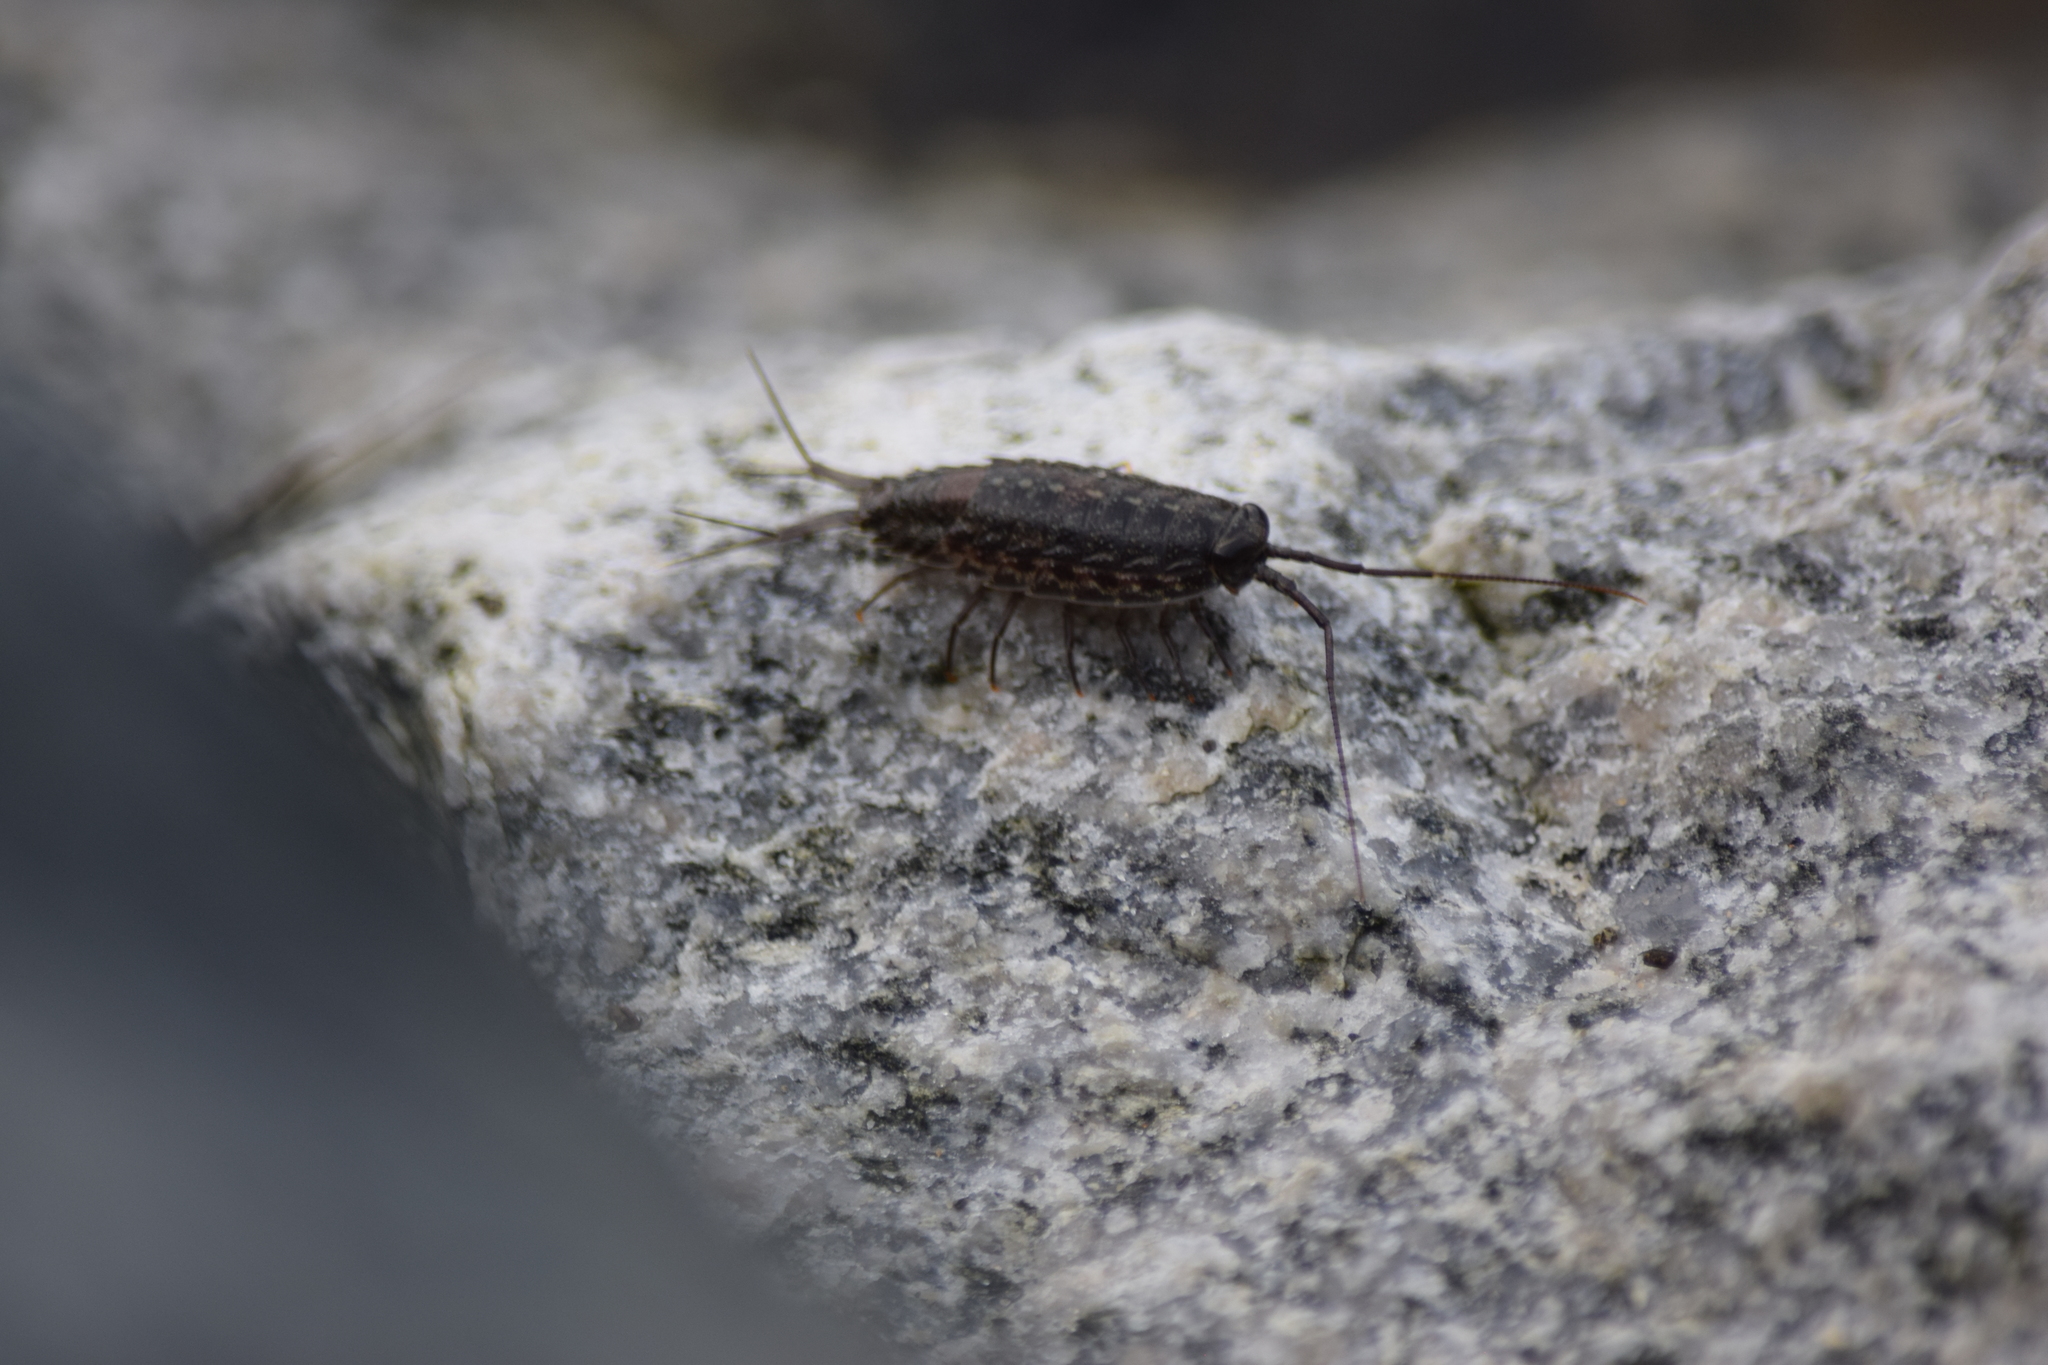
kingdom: Animalia
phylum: Arthropoda
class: Malacostraca
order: Isopoda
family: Ligiidae
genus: Ligia
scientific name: Ligia exotica
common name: Wharf roach
